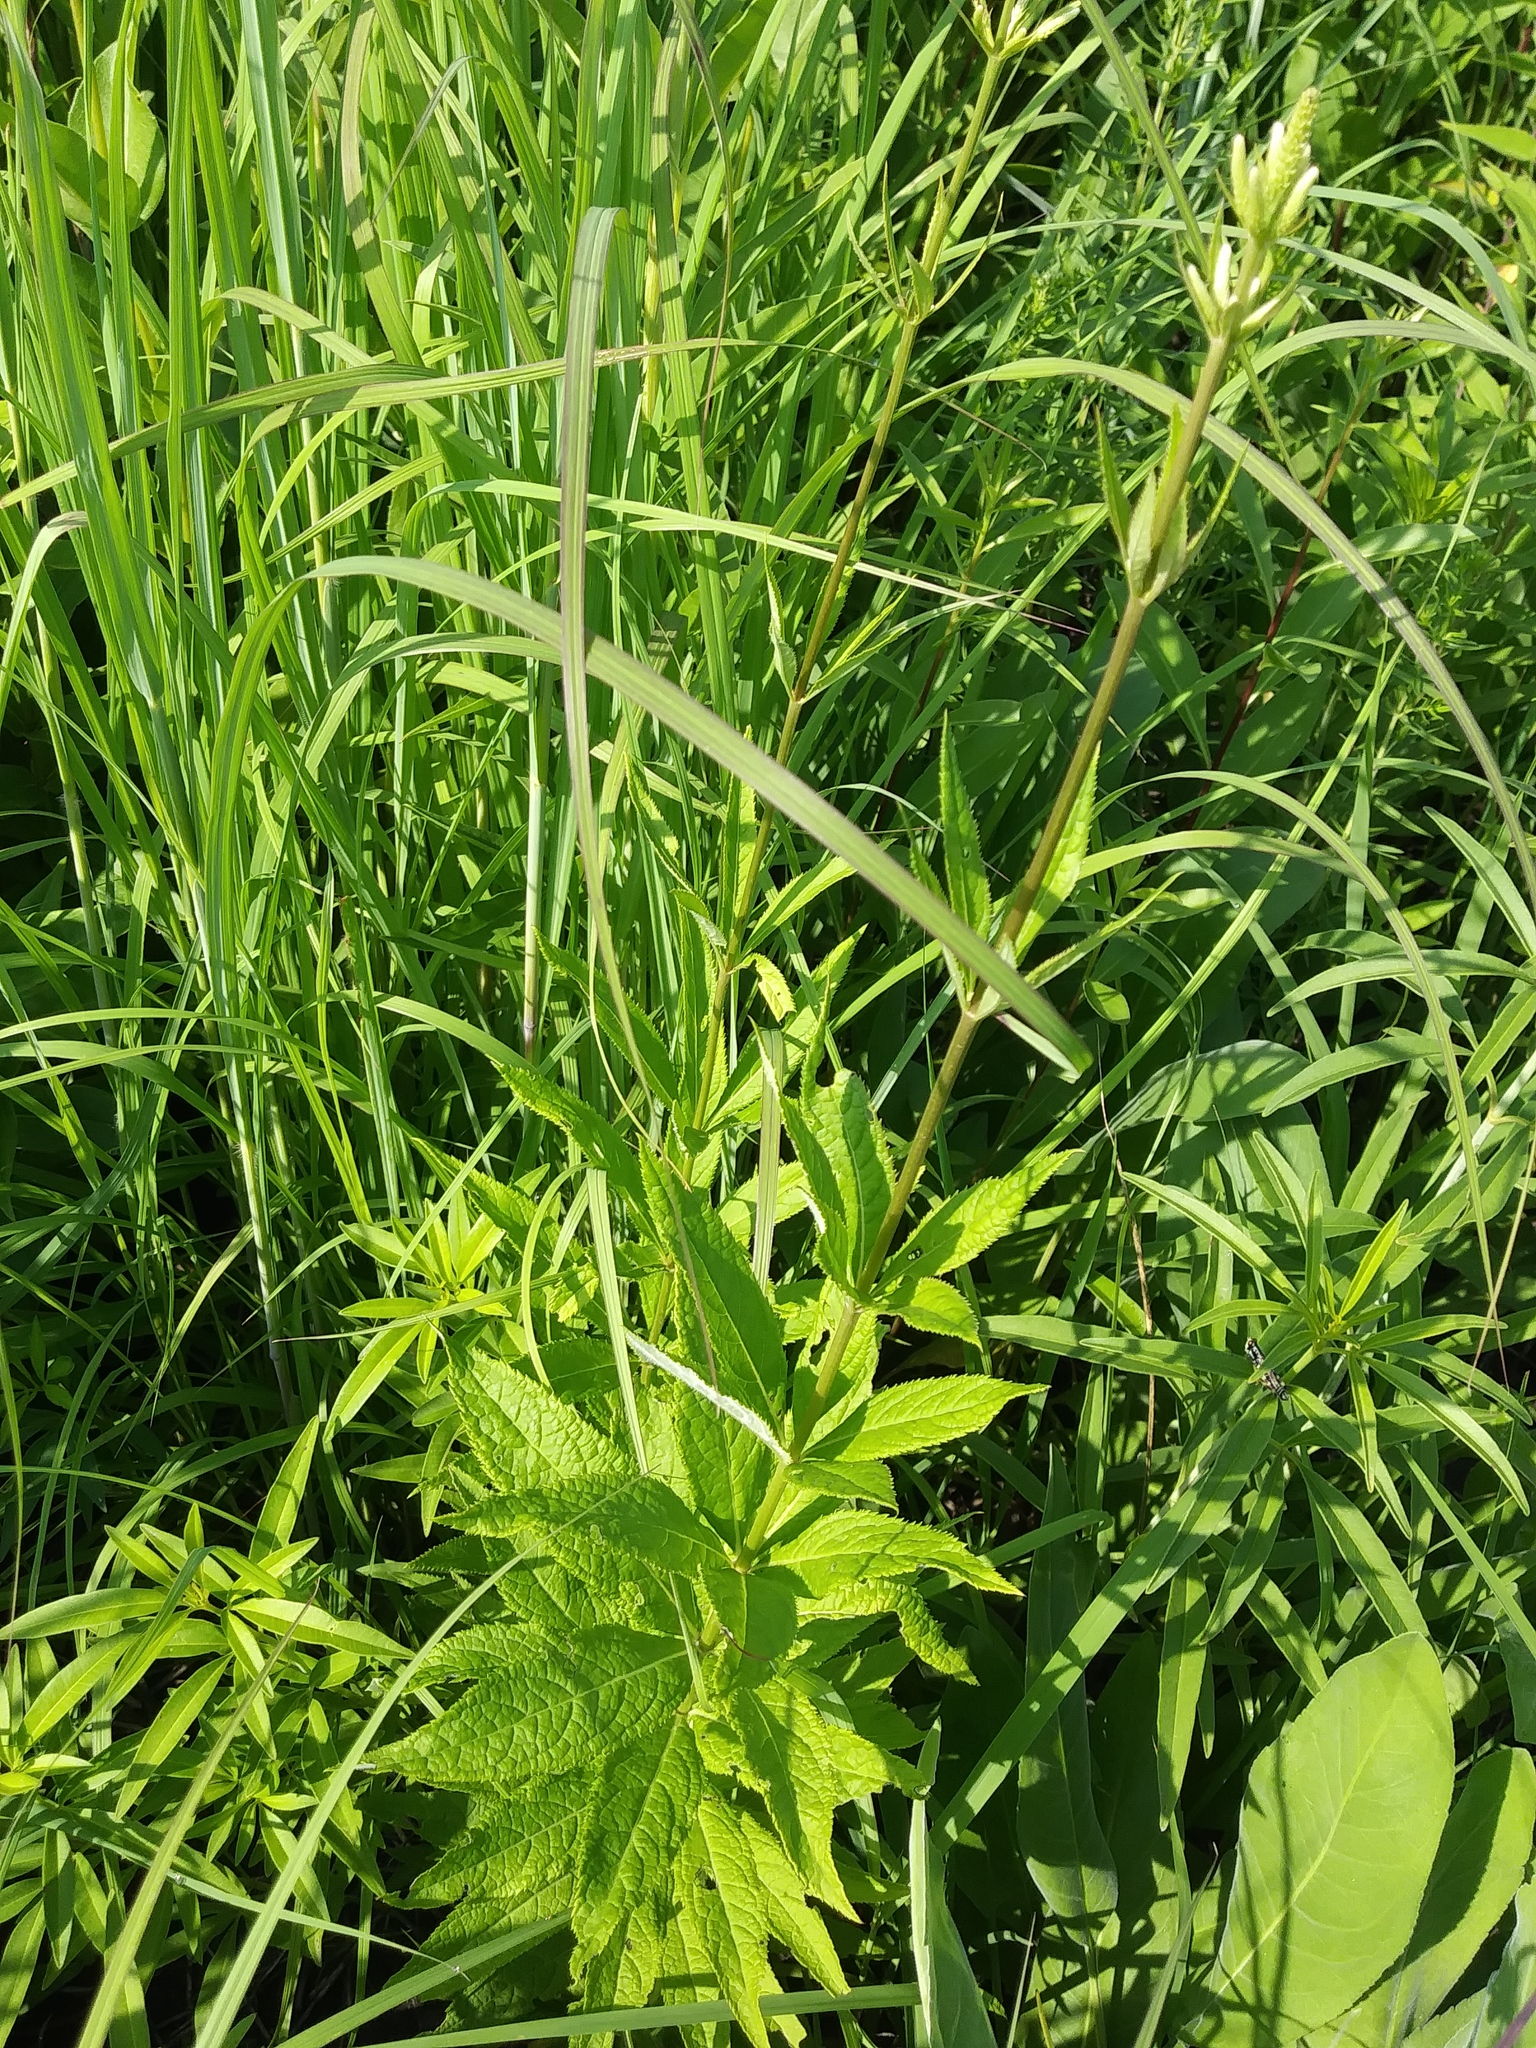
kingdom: Plantae
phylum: Tracheophyta
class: Magnoliopsida
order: Lamiales
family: Plantaginaceae
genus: Veronicastrum
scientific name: Veronicastrum virginicum
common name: Blackroot
